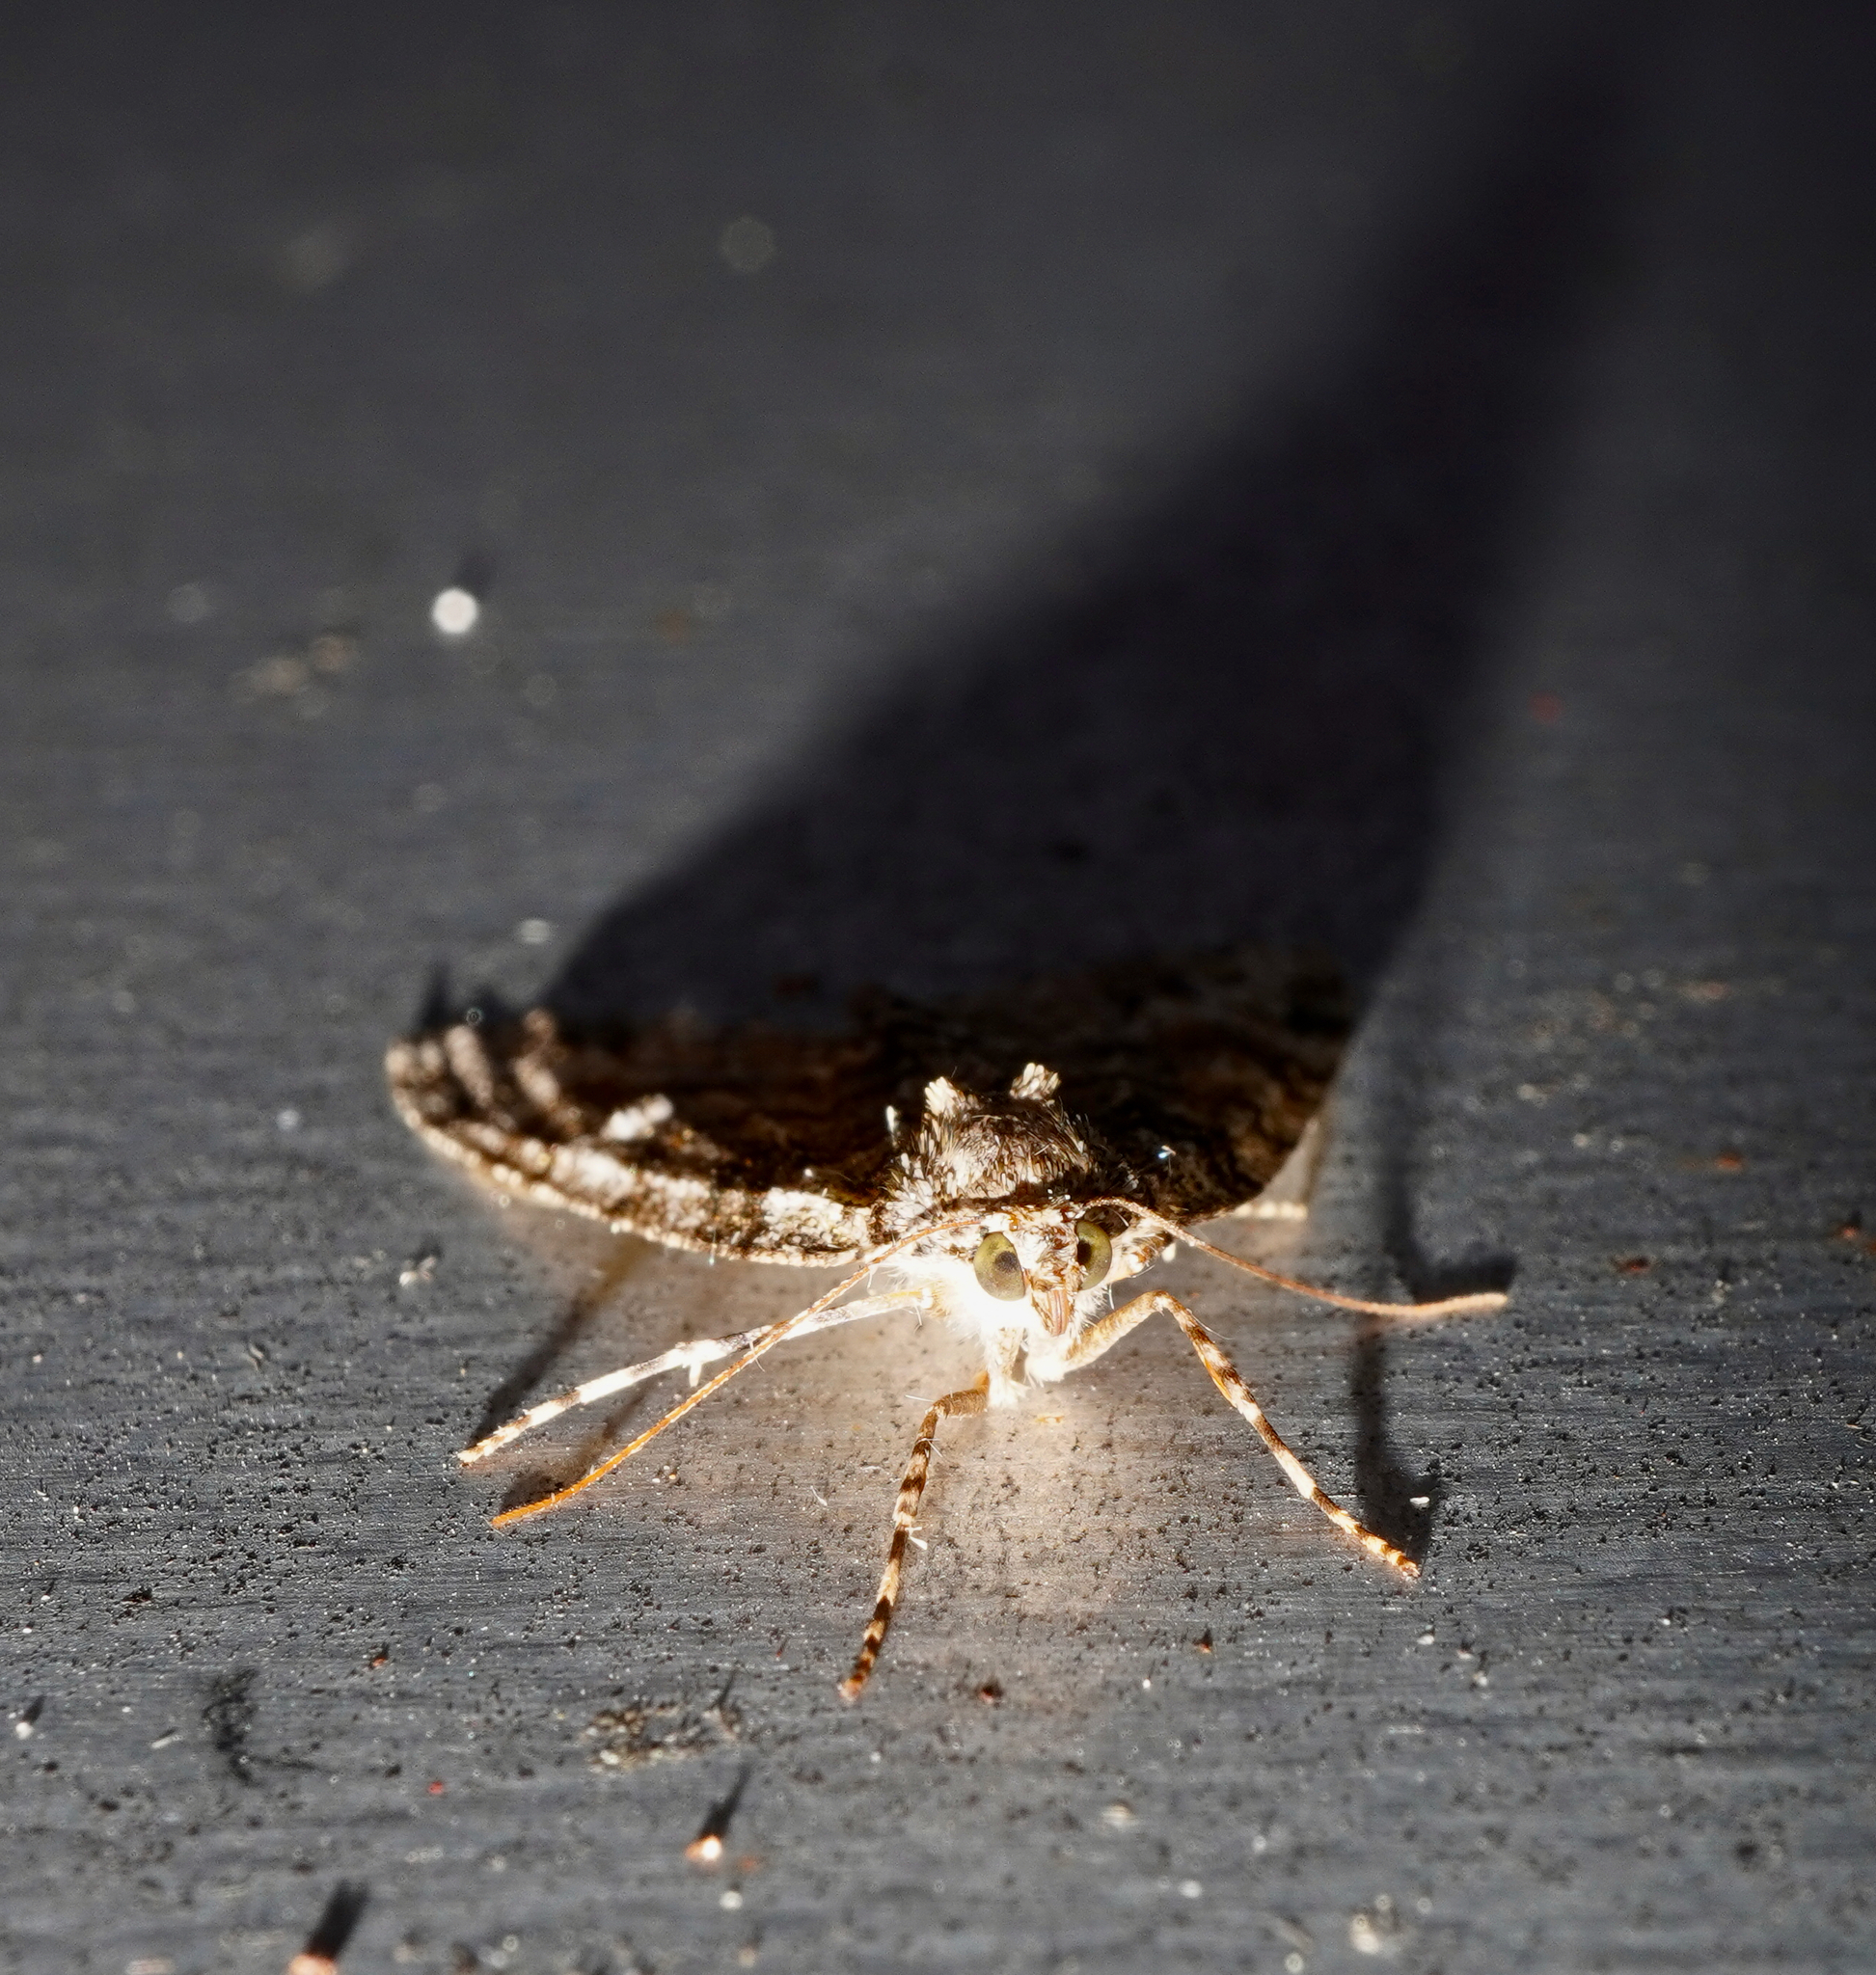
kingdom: Animalia
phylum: Arthropoda
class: Insecta
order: Lepidoptera
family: Geometridae
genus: Pseudocoremia
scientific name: Pseudocoremia suavis
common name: Common forest looper
